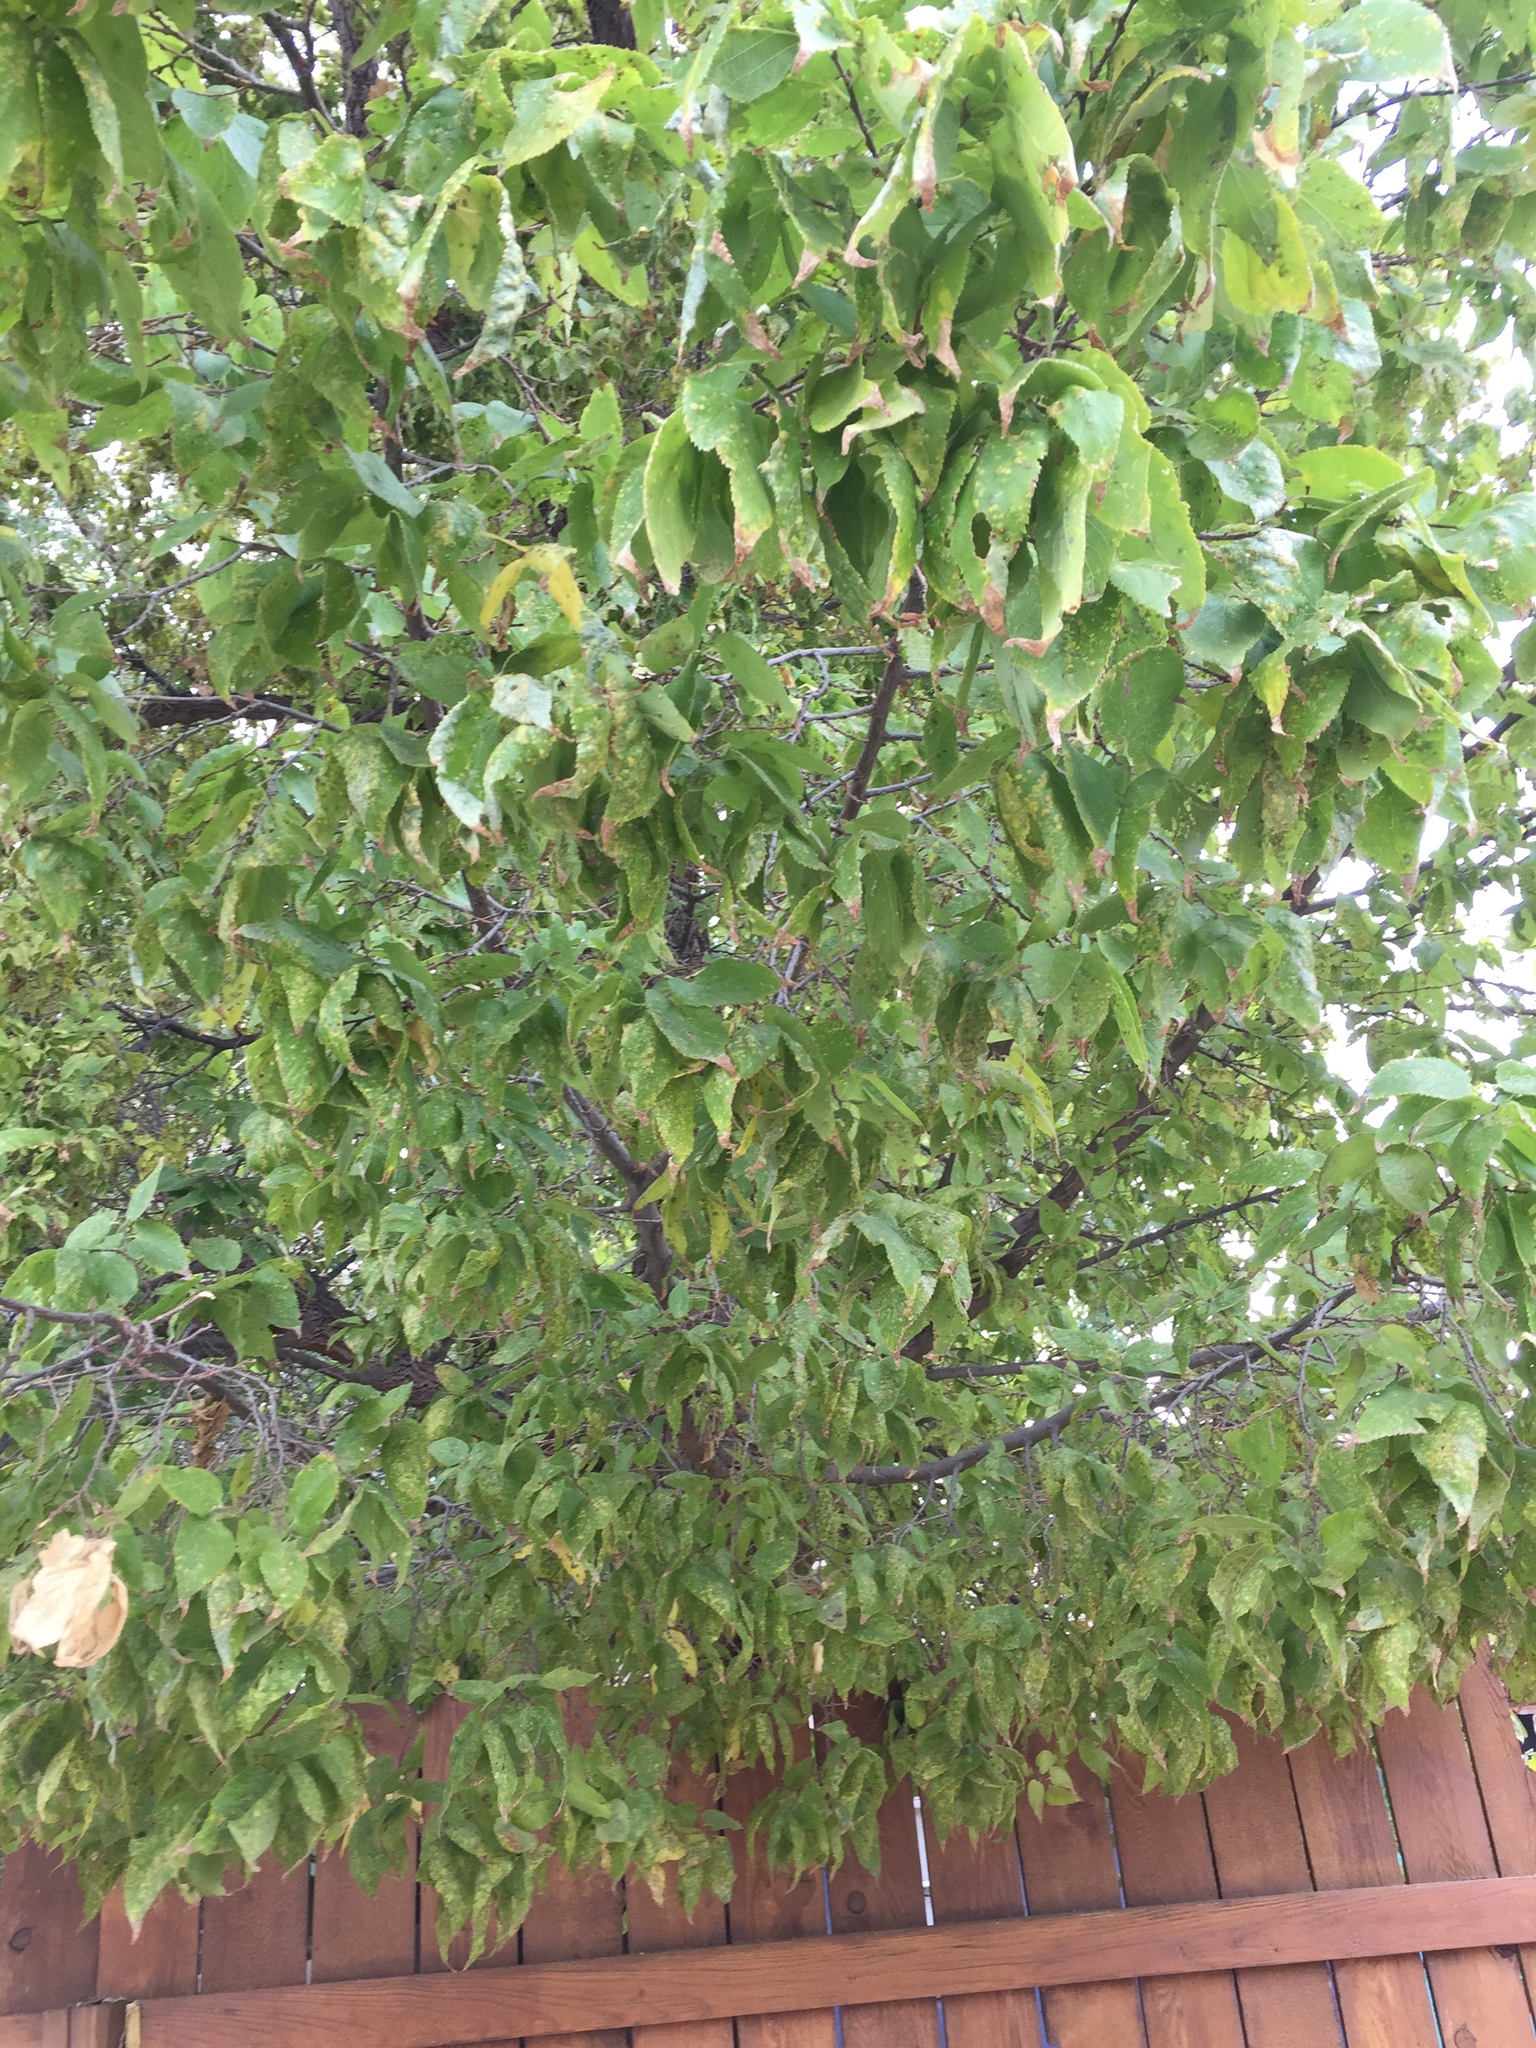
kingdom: Animalia
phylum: Arthropoda
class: Insecta
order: Hemiptera
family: Aphalaridae
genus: Pachypsylla
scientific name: Pachypsylla celtidismamma
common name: Hackberry nipplegall psyllid
